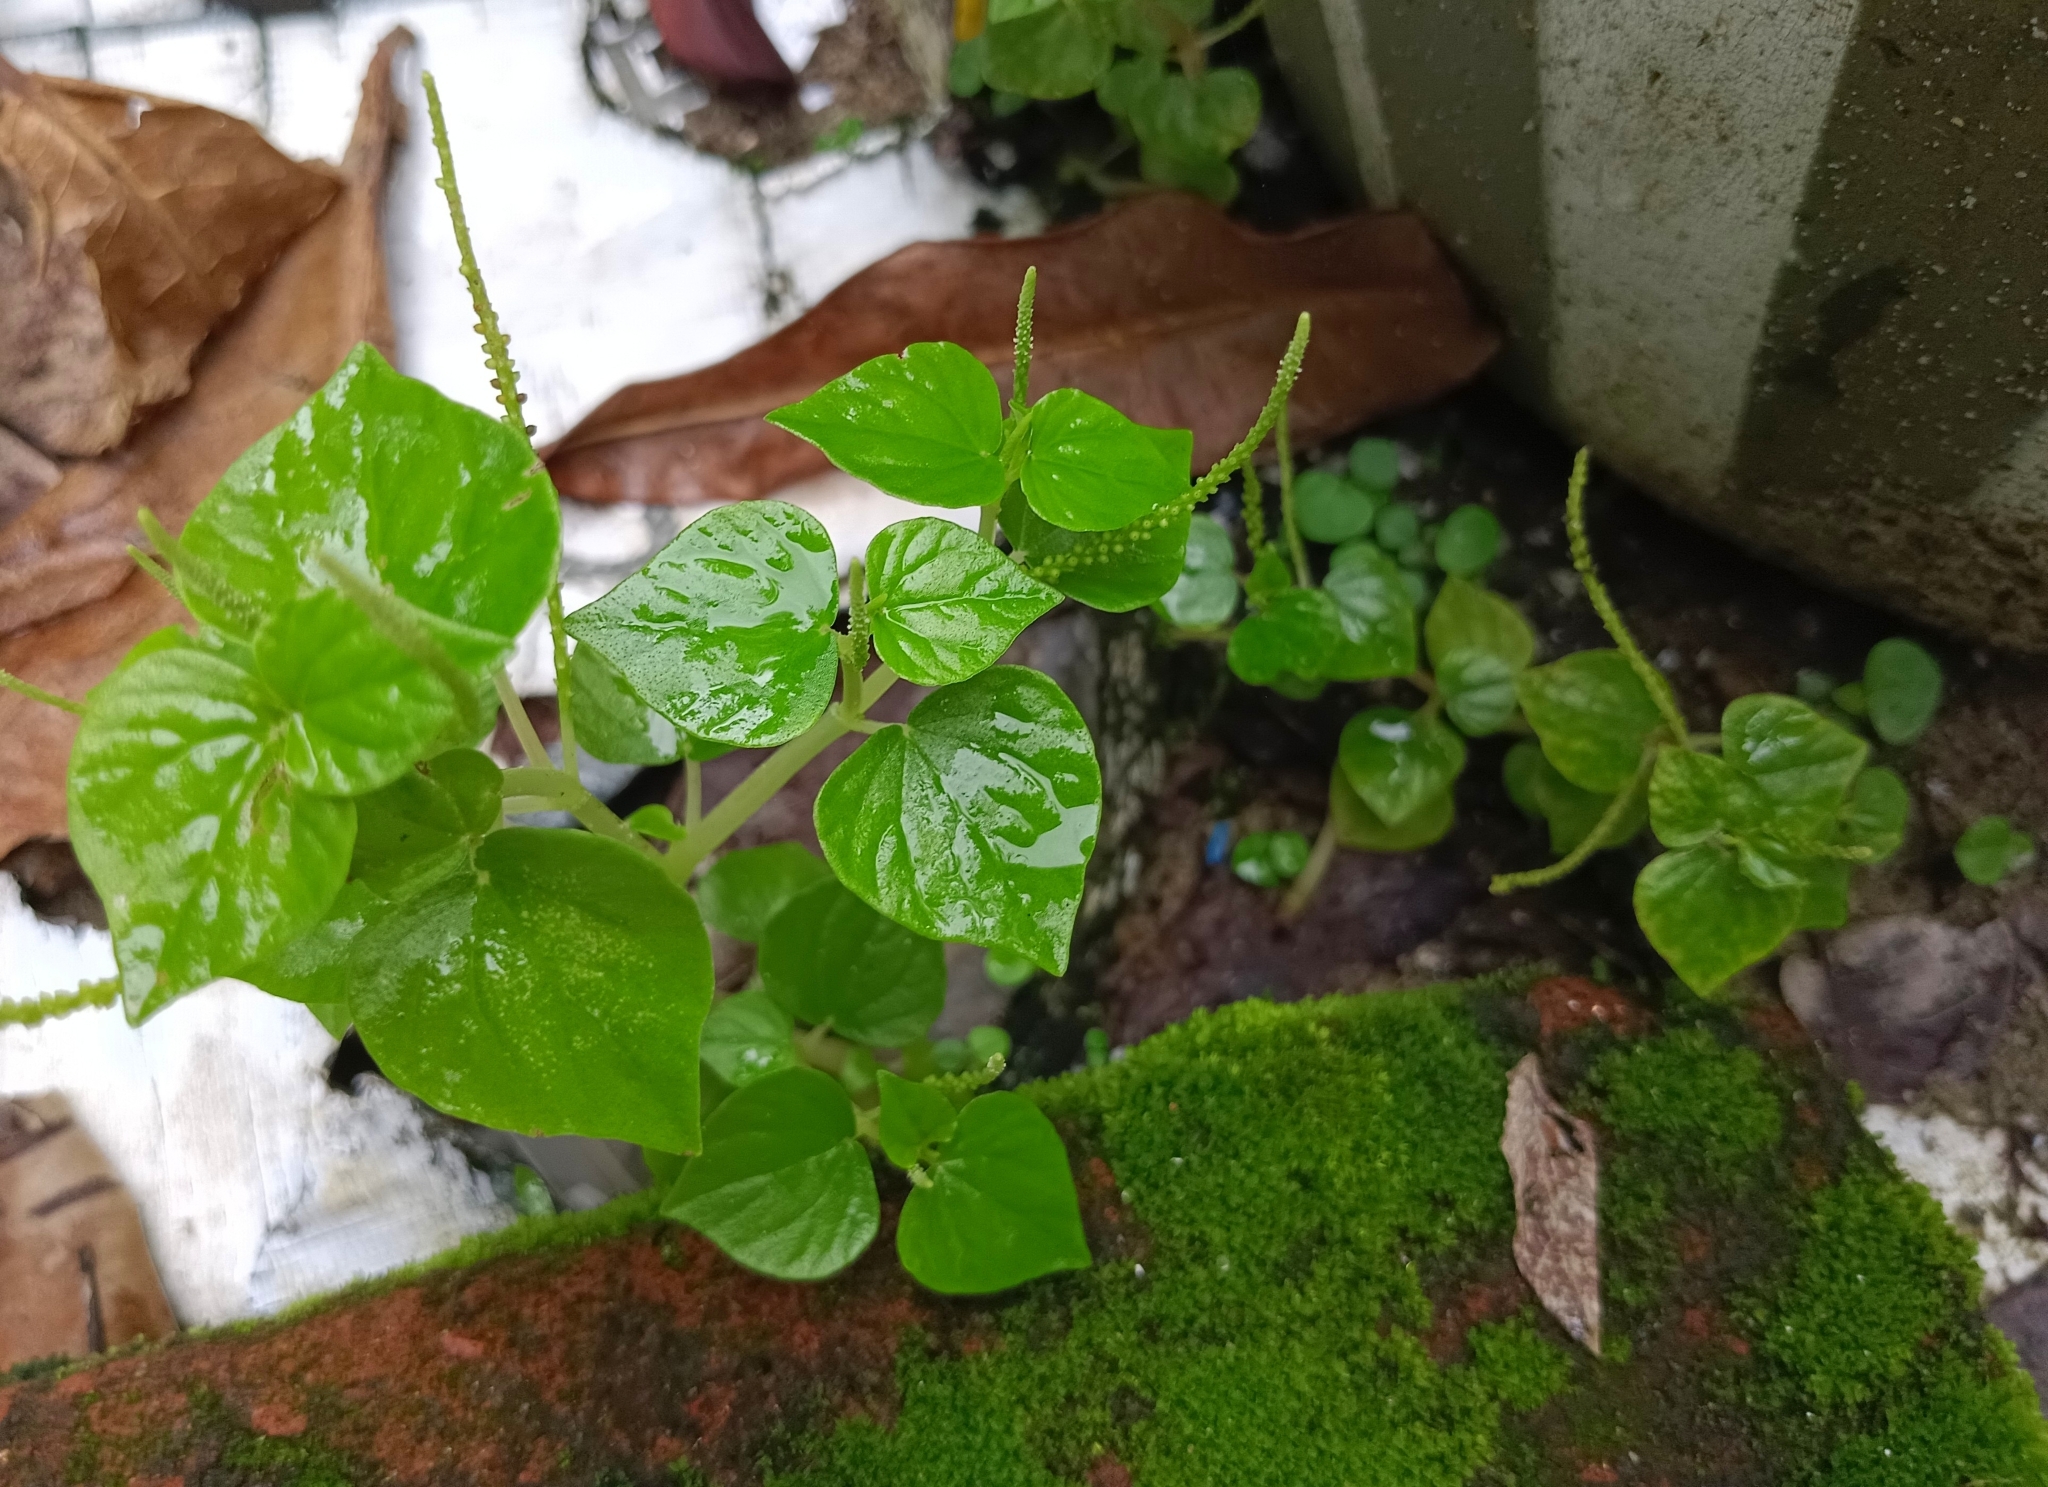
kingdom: Plantae
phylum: Tracheophyta
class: Magnoliopsida
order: Piperales
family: Piperaceae
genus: Peperomia
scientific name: Peperomia pellucida
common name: Man to man
